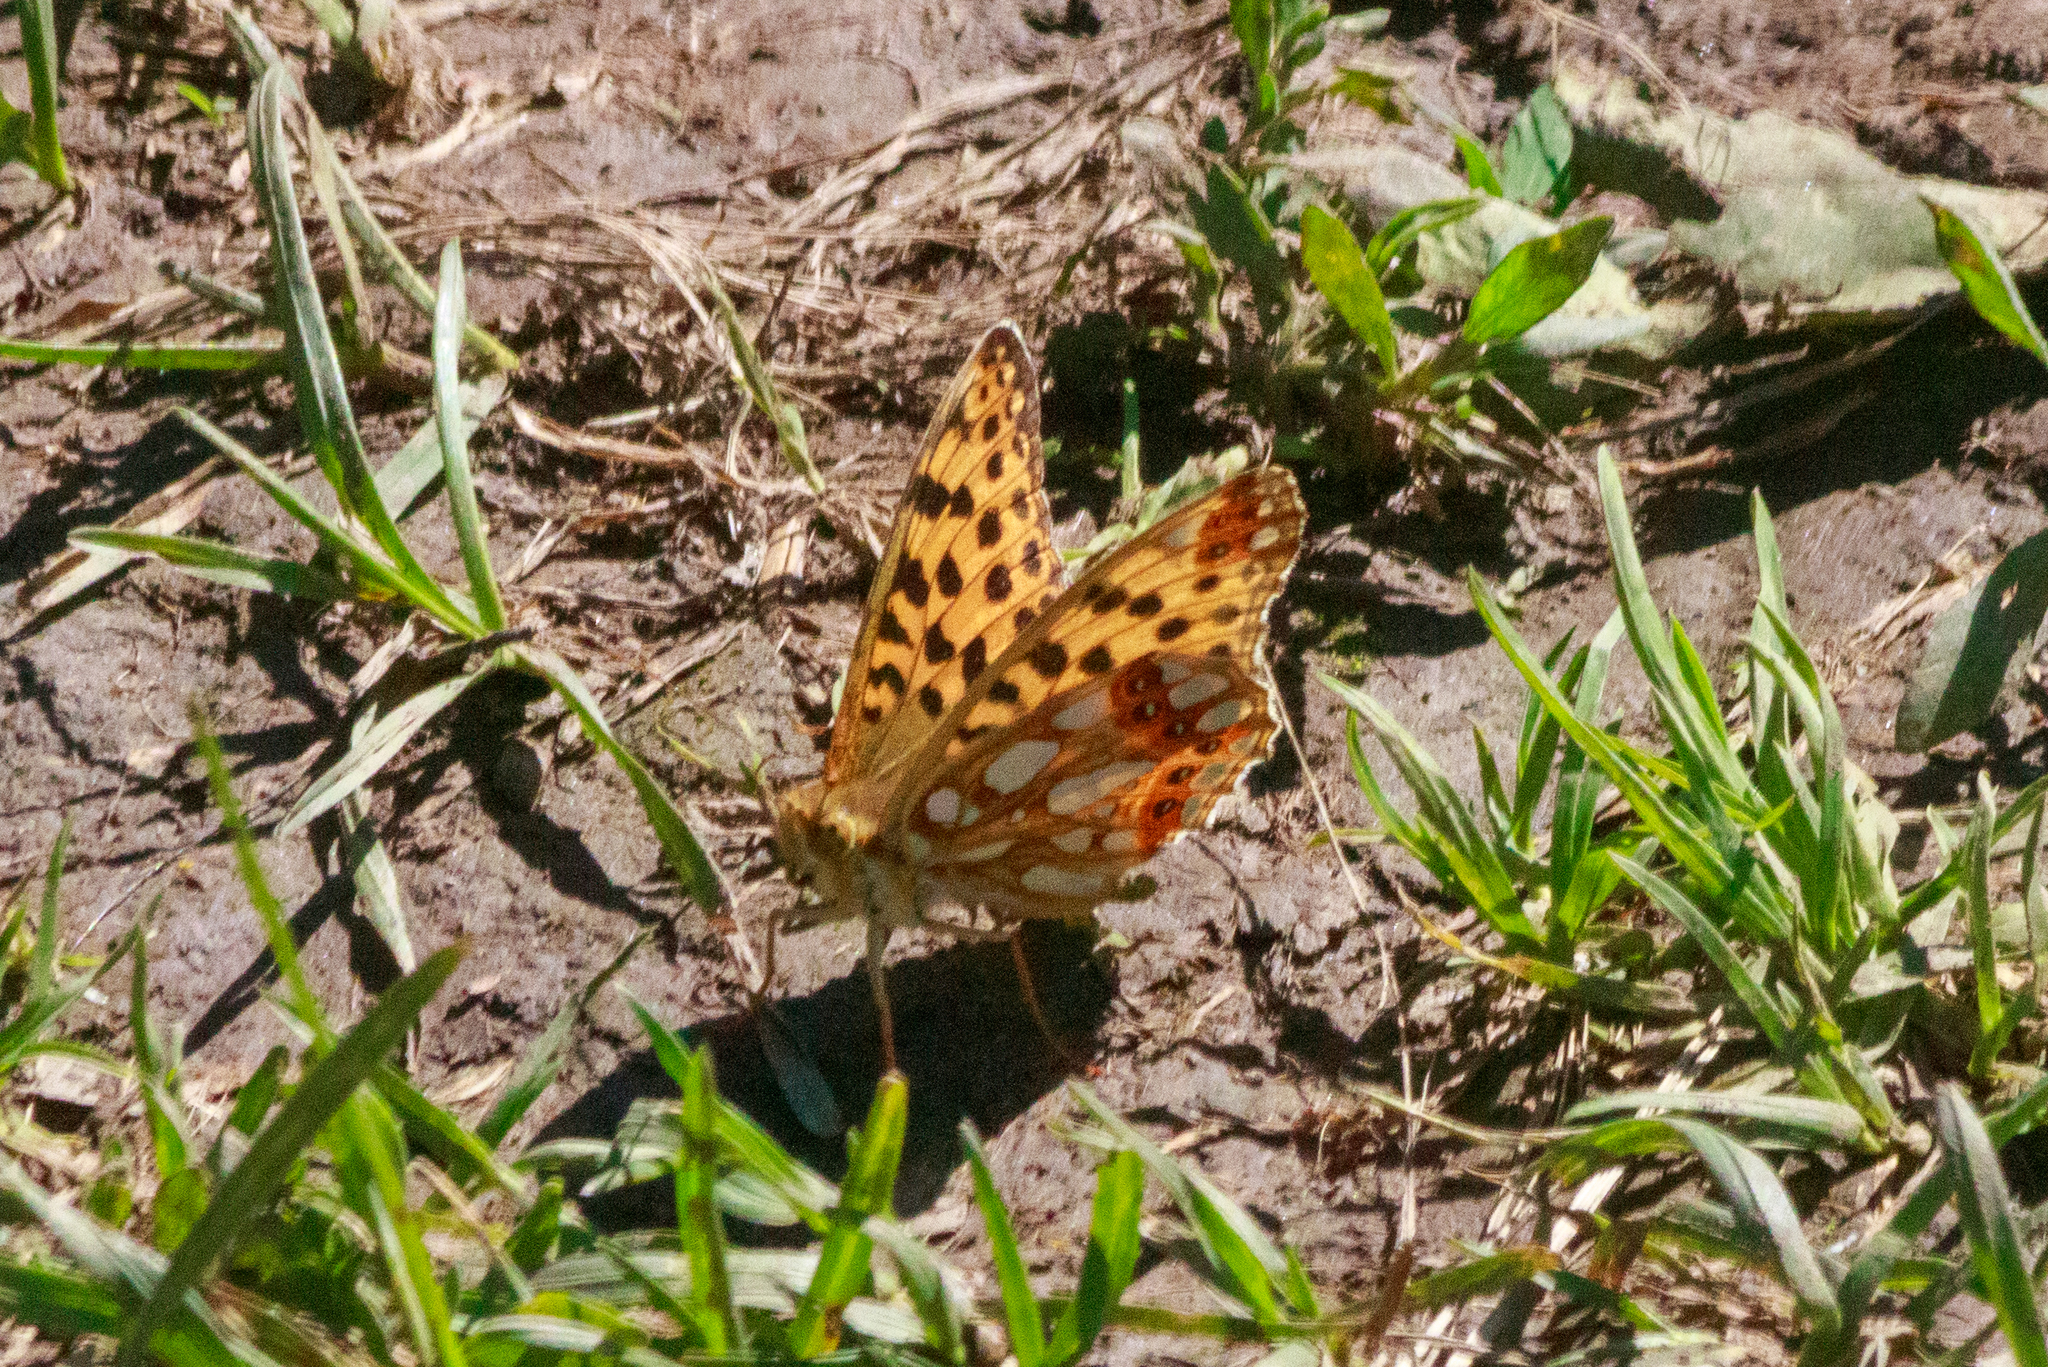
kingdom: Animalia
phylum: Arthropoda
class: Insecta
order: Lepidoptera
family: Nymphalidae
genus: Issoria
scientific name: Issoria lathonia
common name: Queen of spain fritillary
